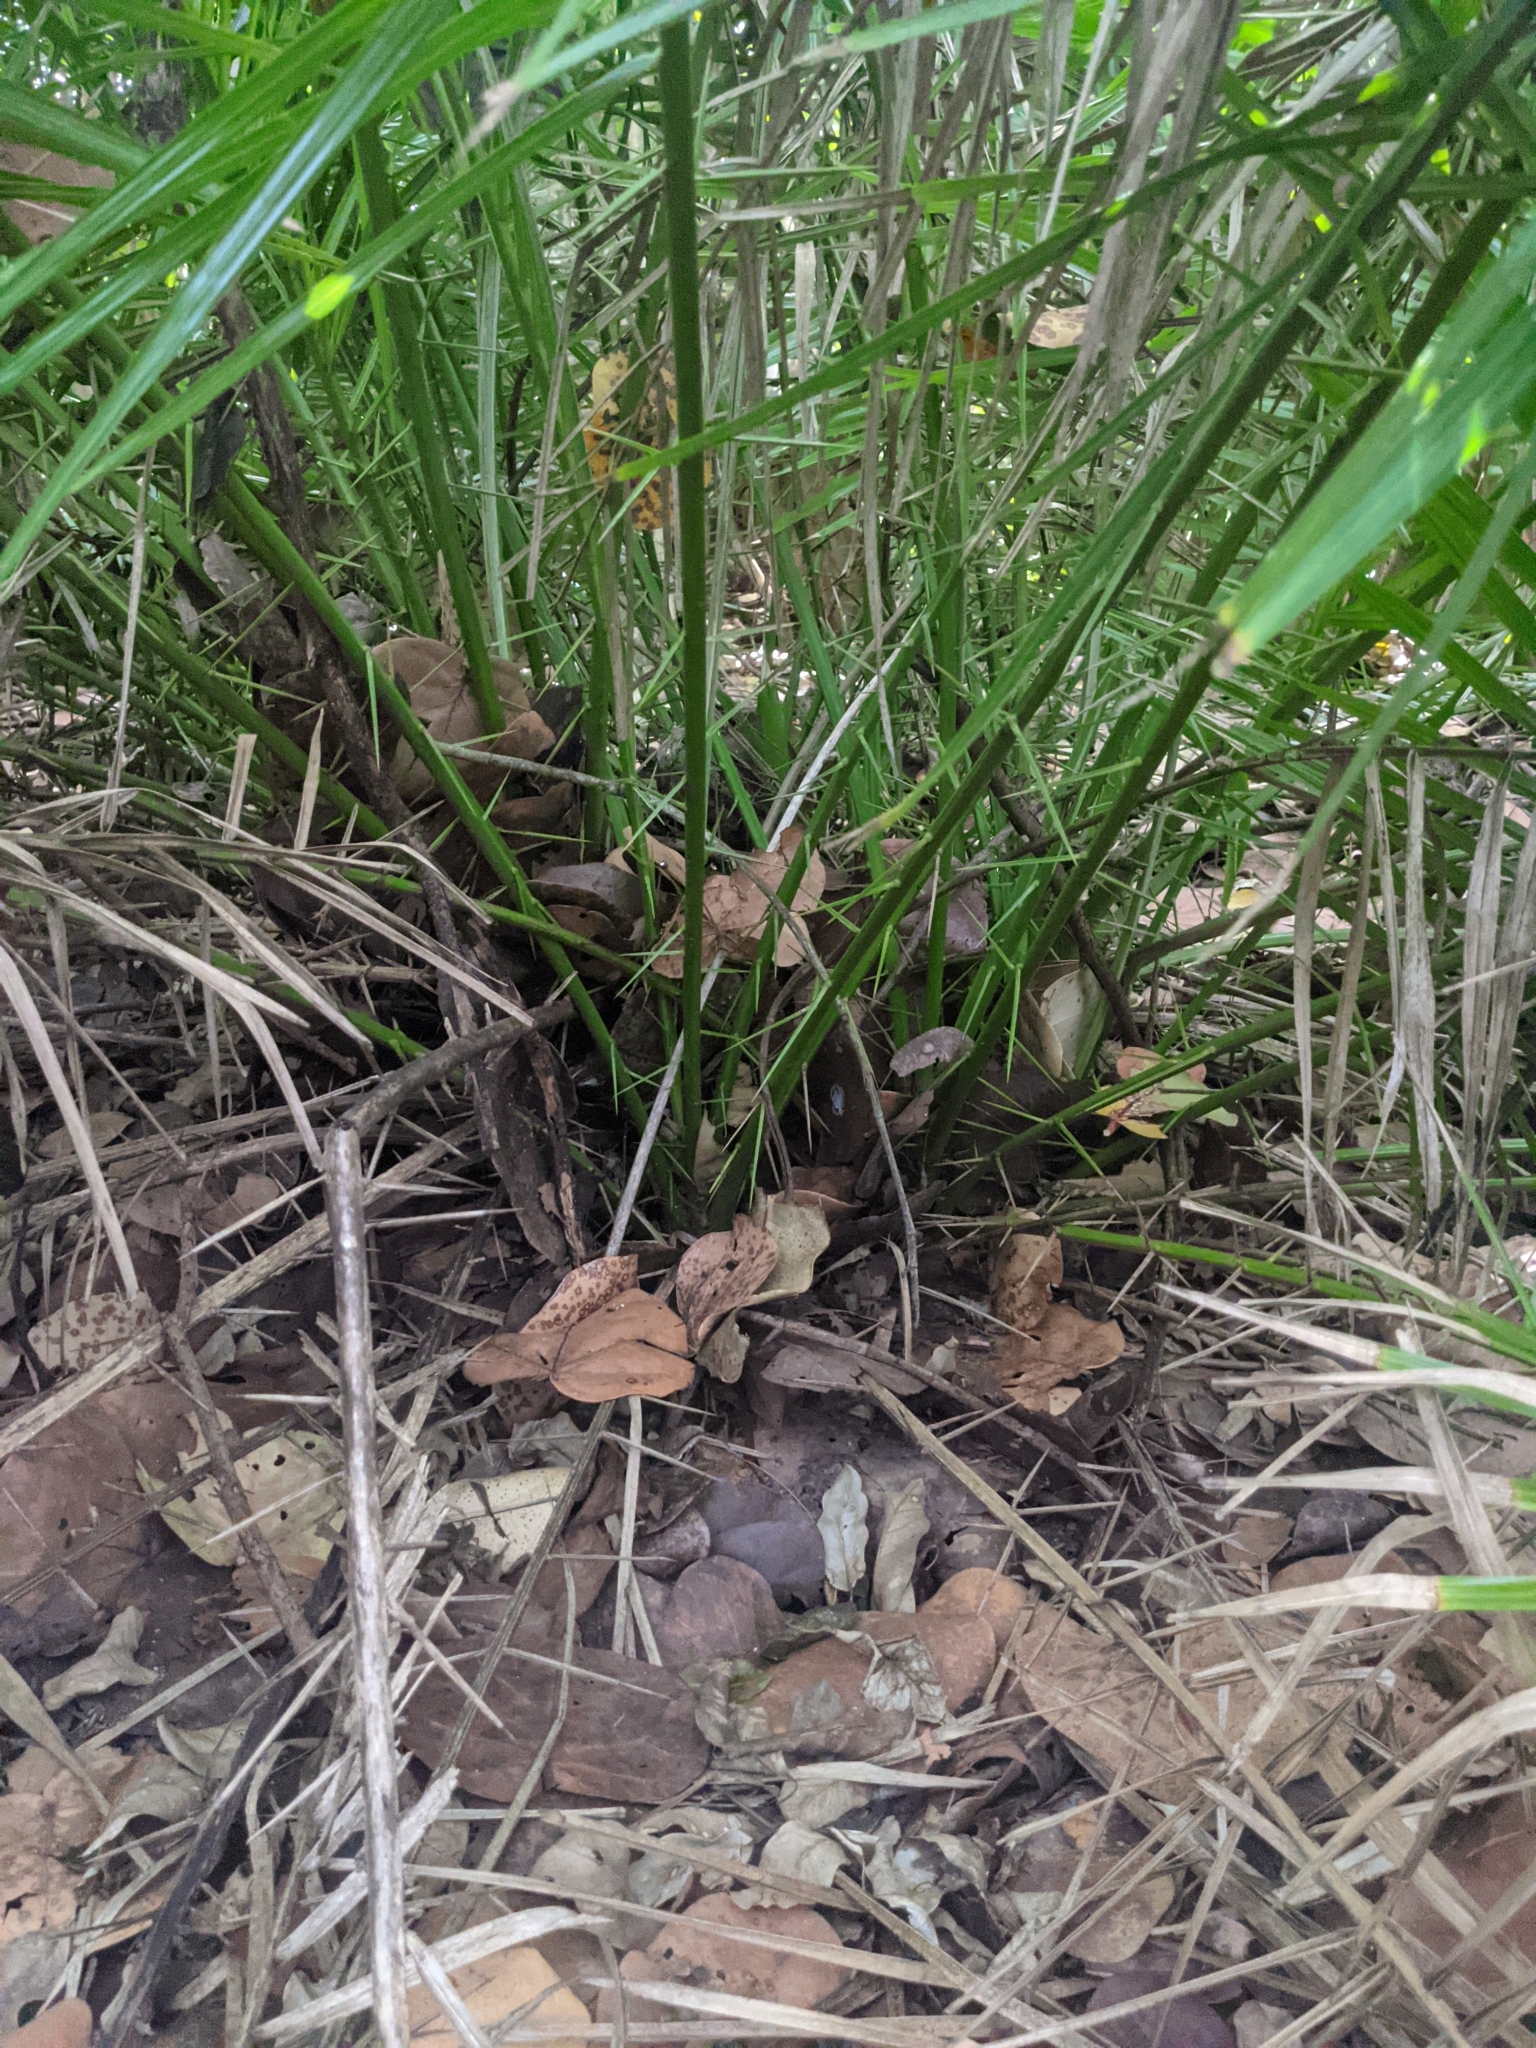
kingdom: Plantae
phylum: Tracheophyta
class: Liliopsida
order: Arecales
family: Arecaceae
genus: Phoenix
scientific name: Phoenix reclinata
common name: Senegal date palm
